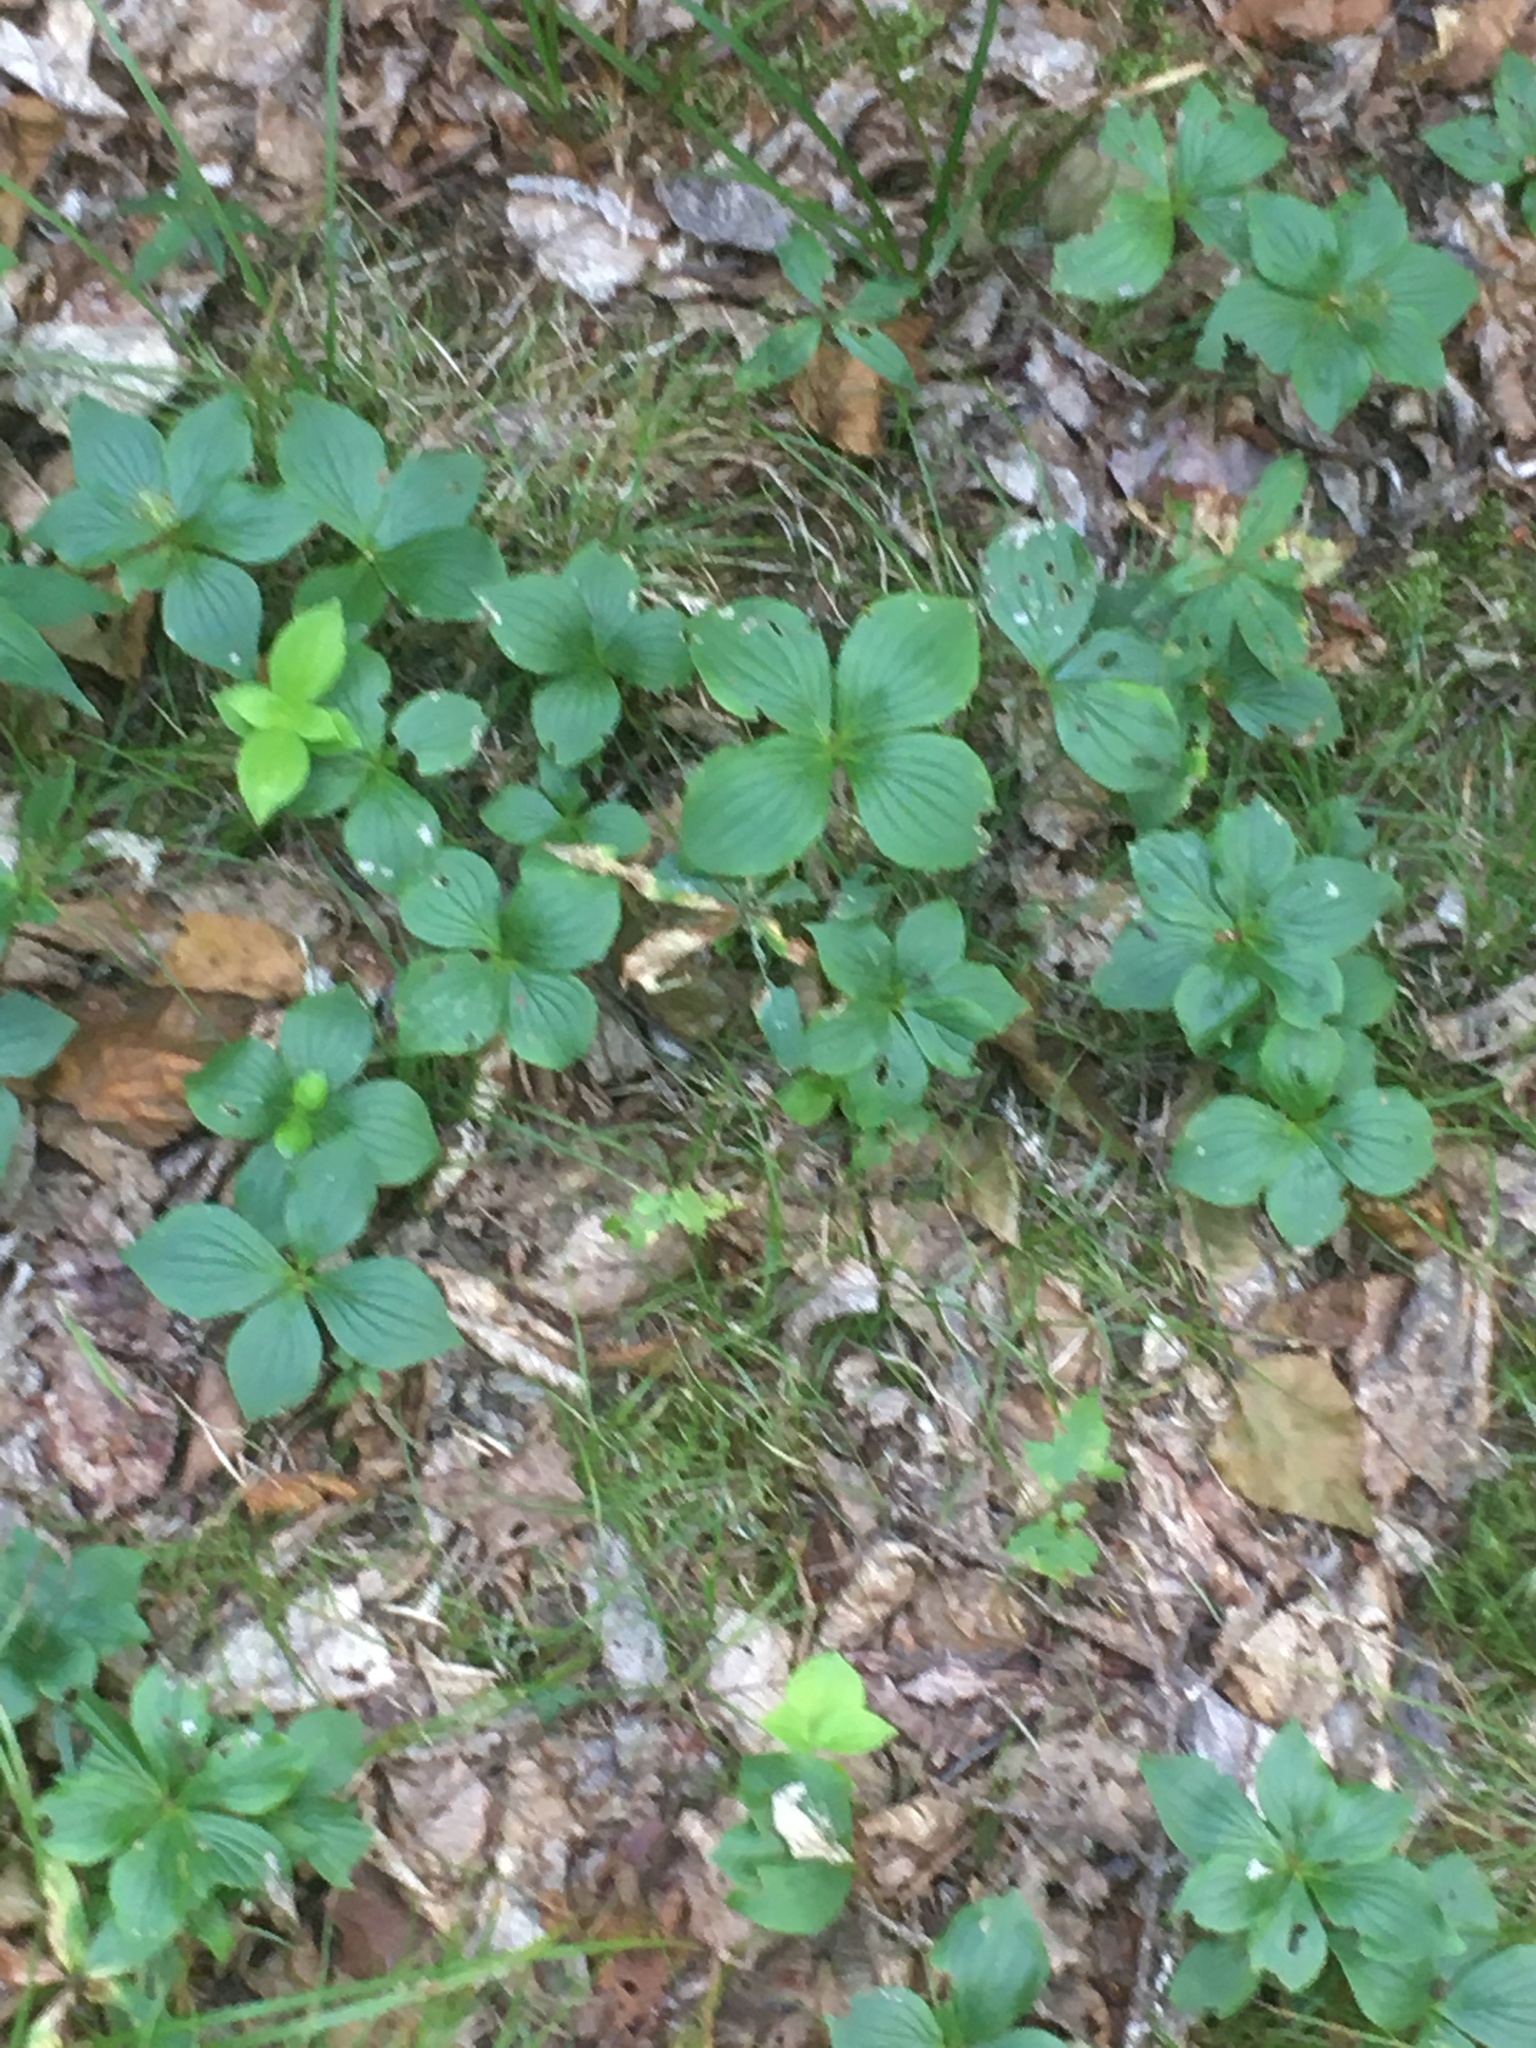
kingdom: Plantae
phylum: Tracheophyta
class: Magnoliopsida
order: Cornales
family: Cornaceae
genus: Cornus
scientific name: Cornus canadensis
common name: Creeping dogwood
